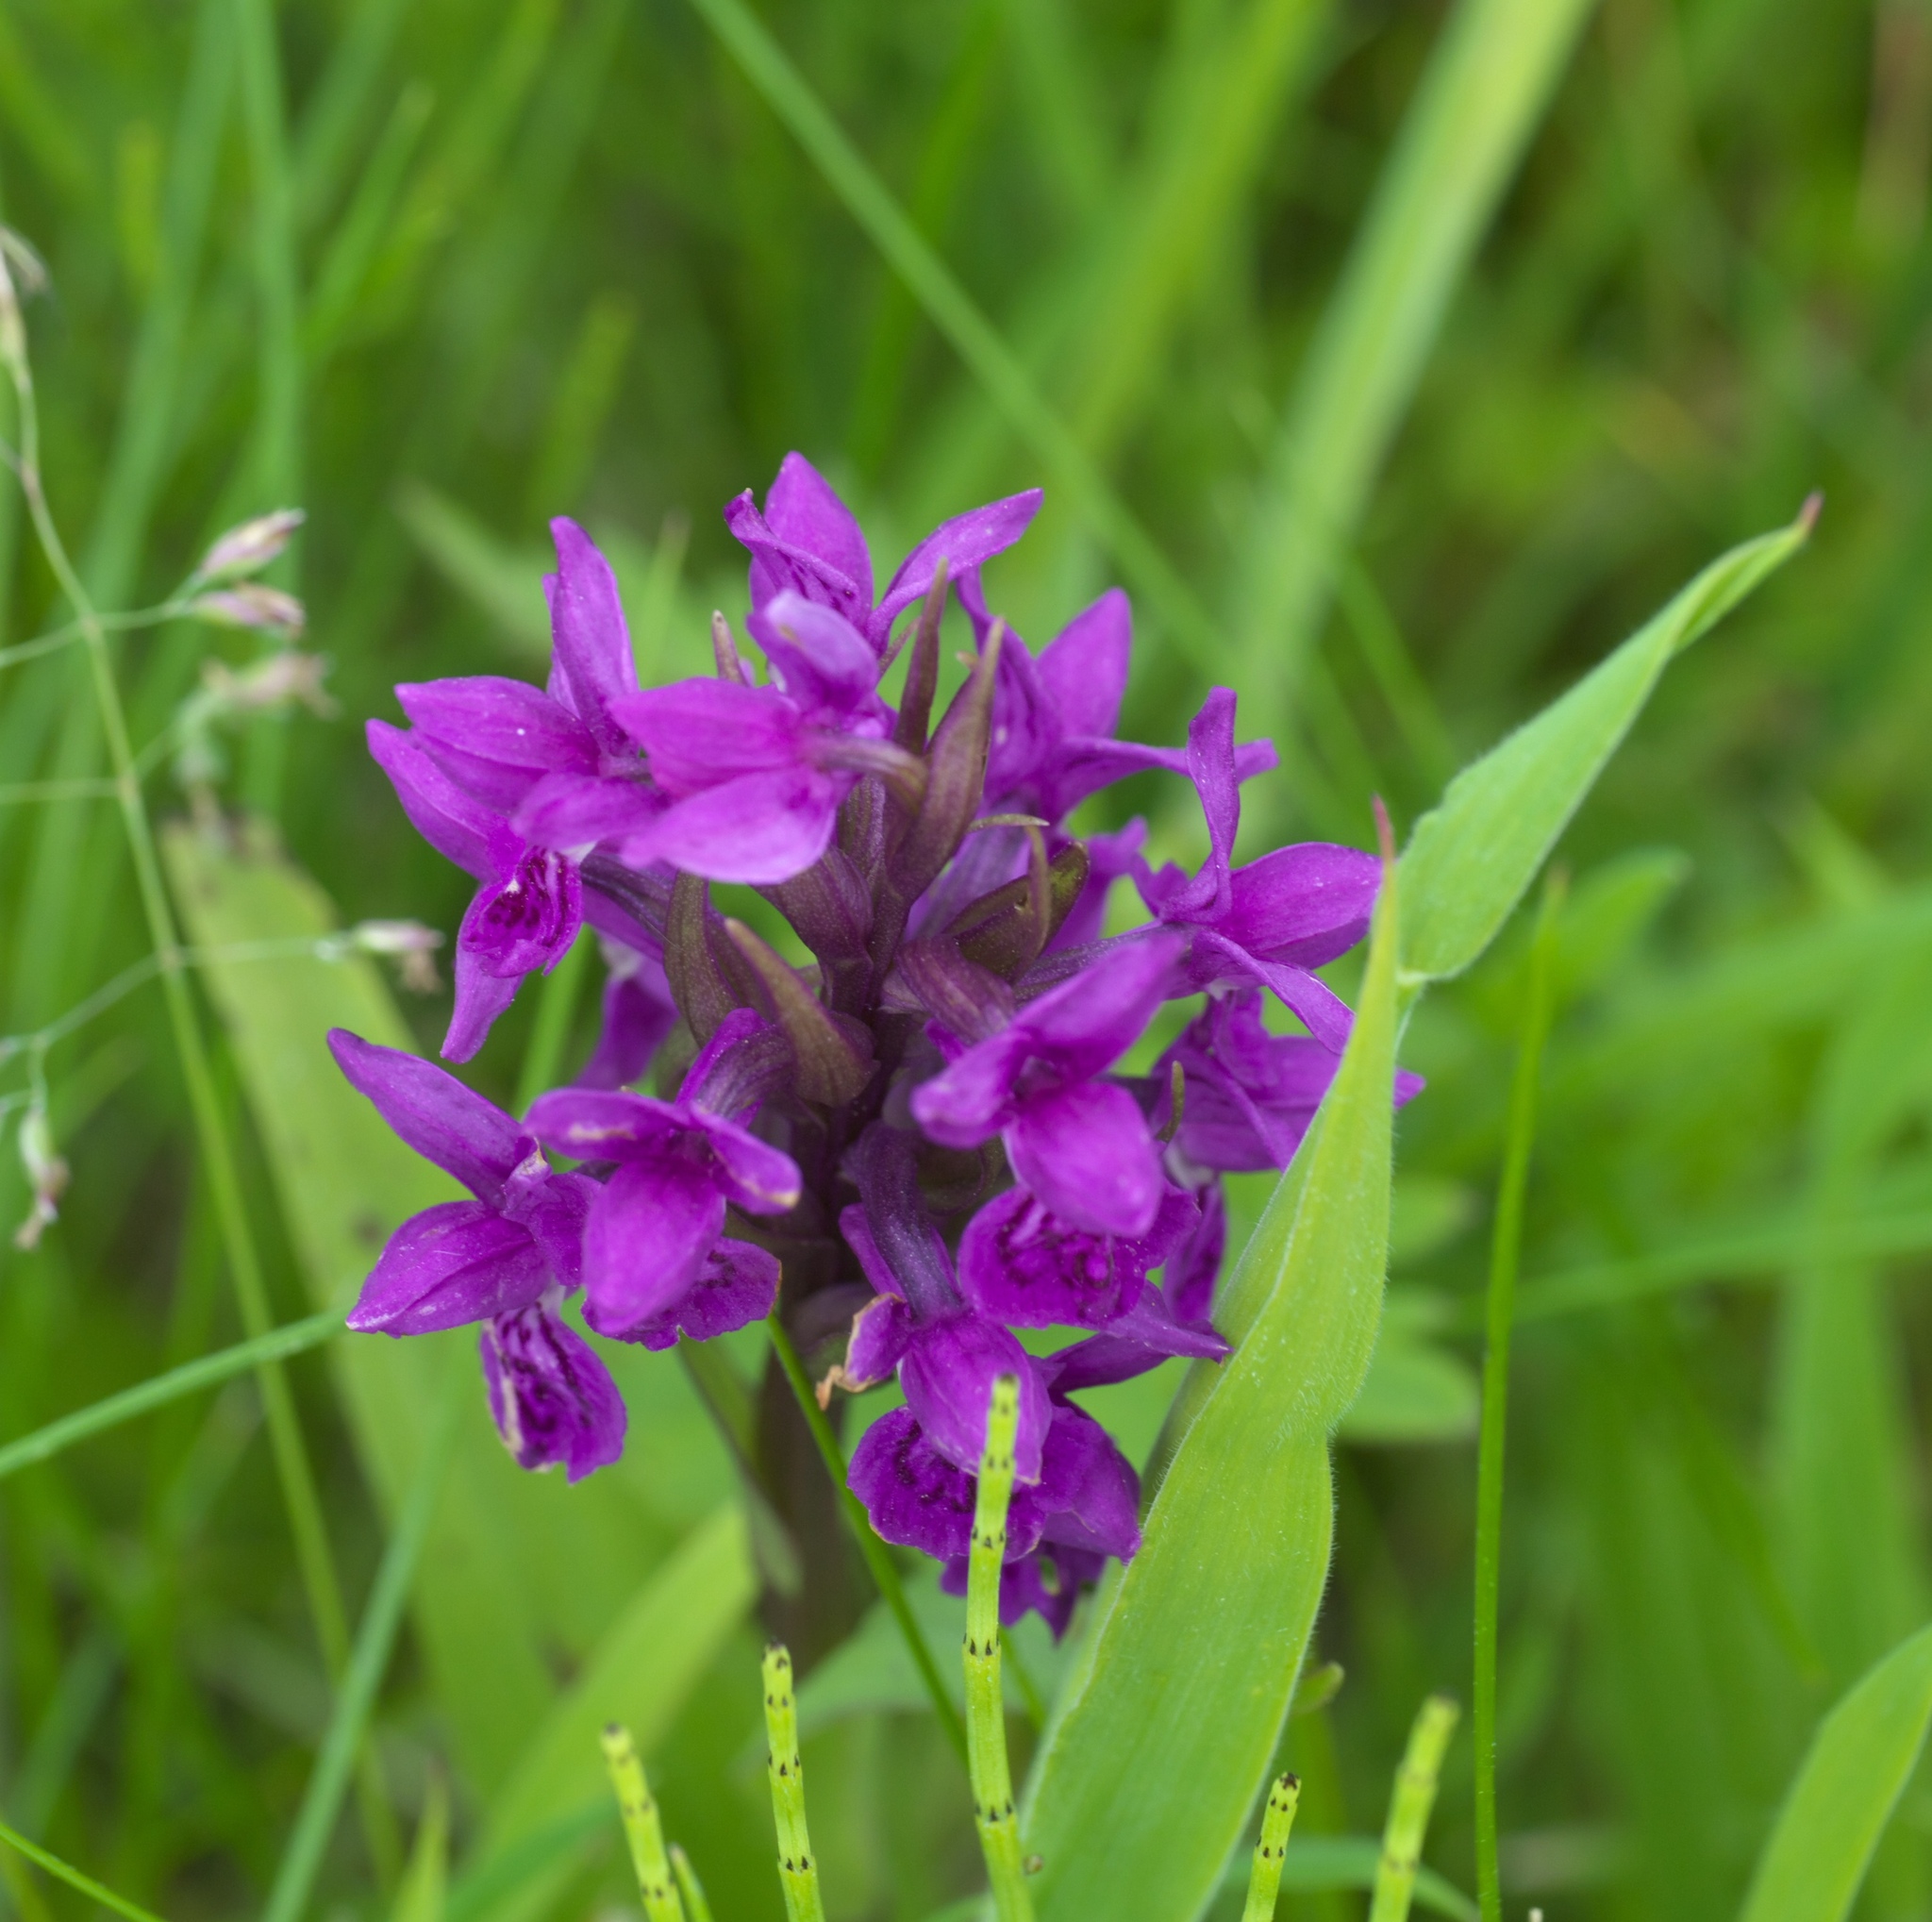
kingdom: Plantae
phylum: Tracheophyta
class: Liliopsida
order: Asparagales
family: Orchidaceae
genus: Dactylorhiza
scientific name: Dactylorhiza majalis
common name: Marsh orchid
